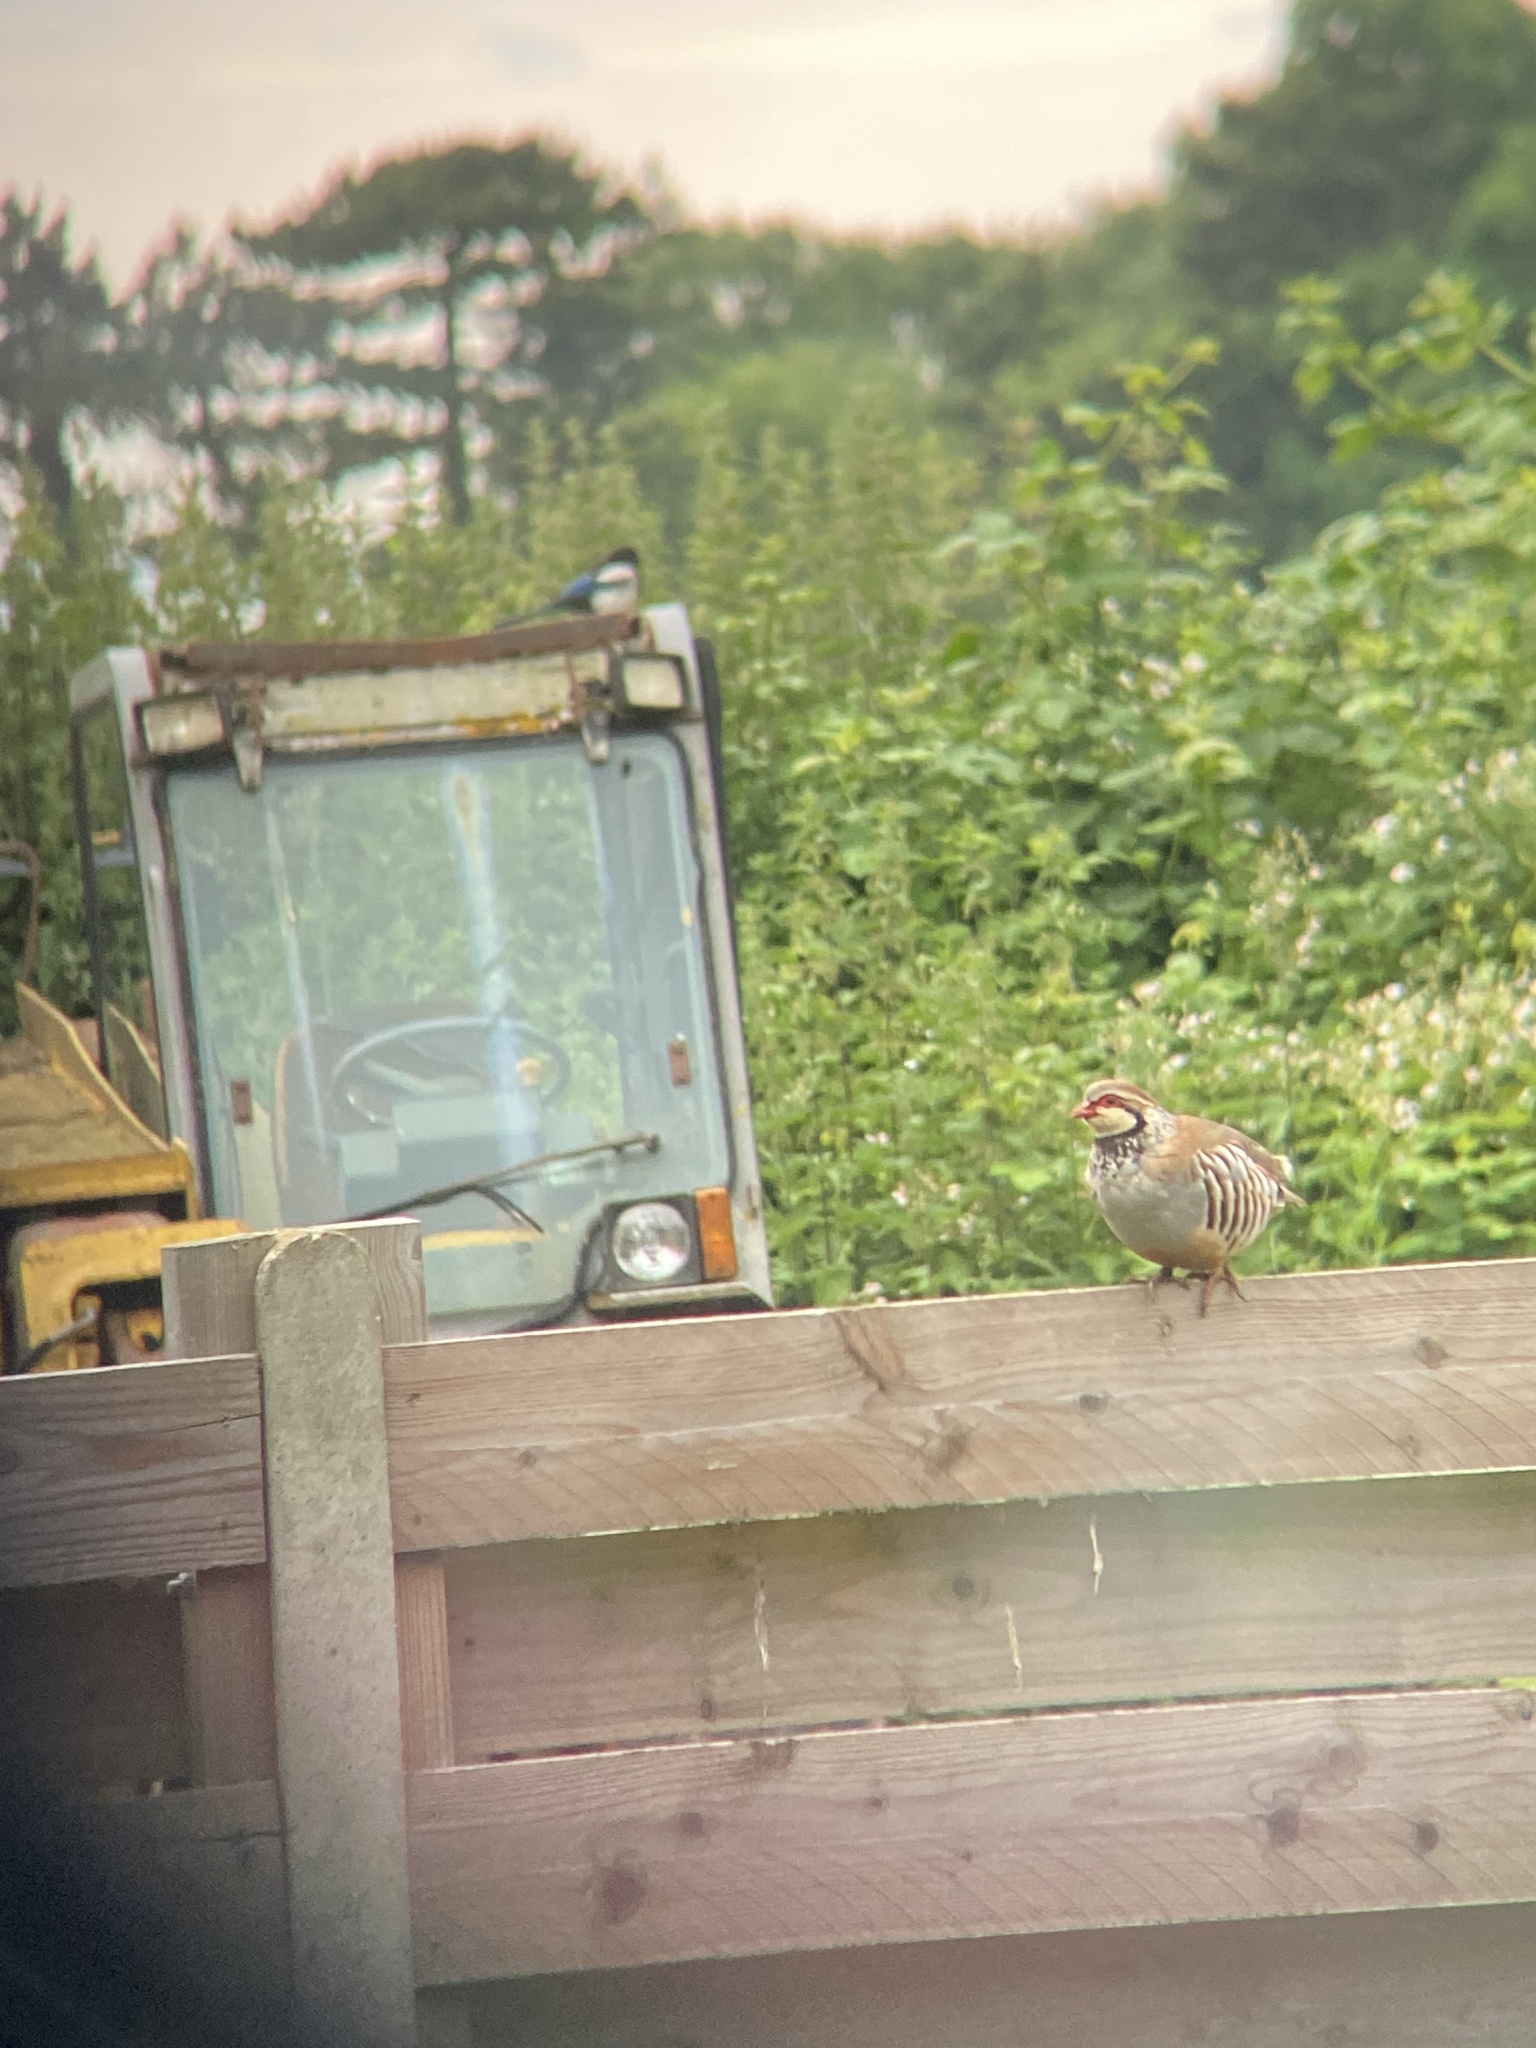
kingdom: Animalia
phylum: Chordata
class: Aves
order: Galliformes
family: Phasianidae
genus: Alectoris
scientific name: Alectoris rufa
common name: Red-legged partridge
